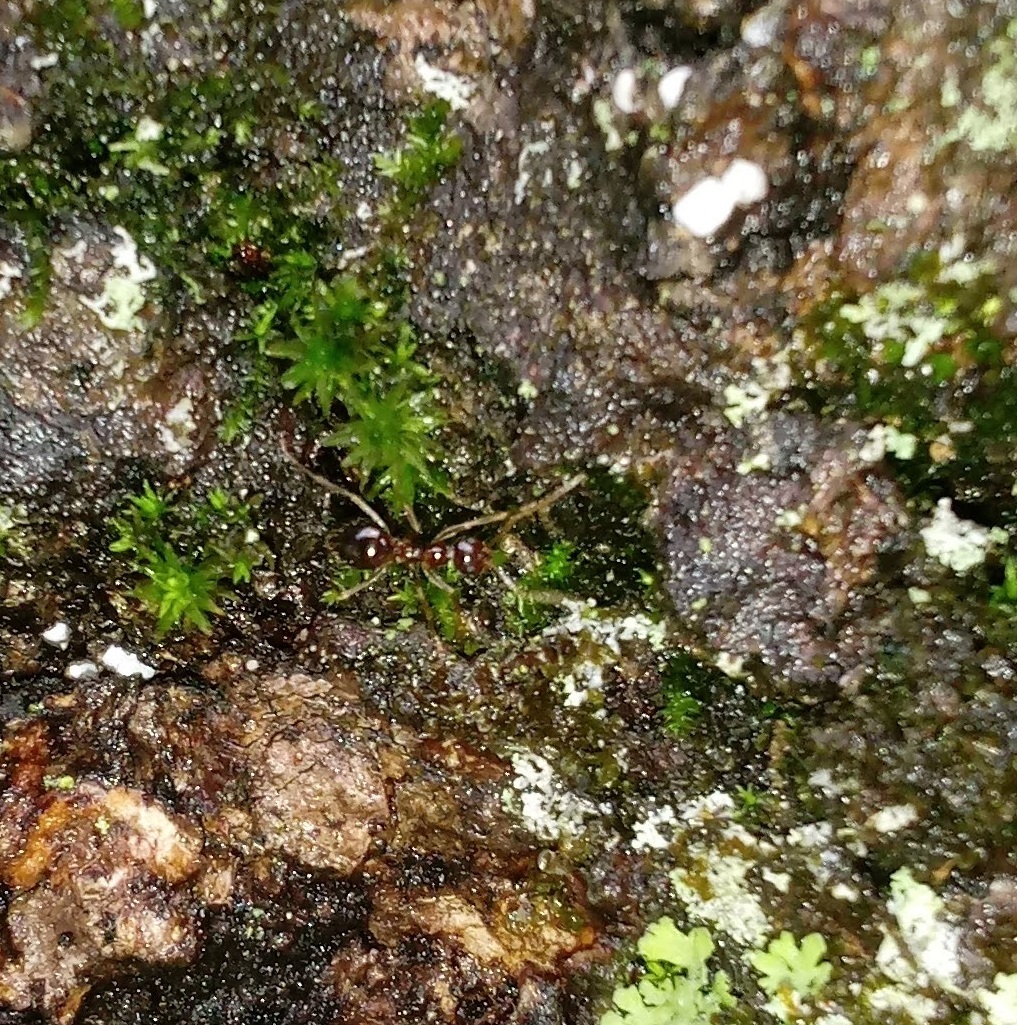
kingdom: Animalia
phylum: Arthropoda
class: Insecta
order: Hymenoptera
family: Formicidae
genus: Prenolepis
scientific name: Prenolepis imparis
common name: Small honey ant
